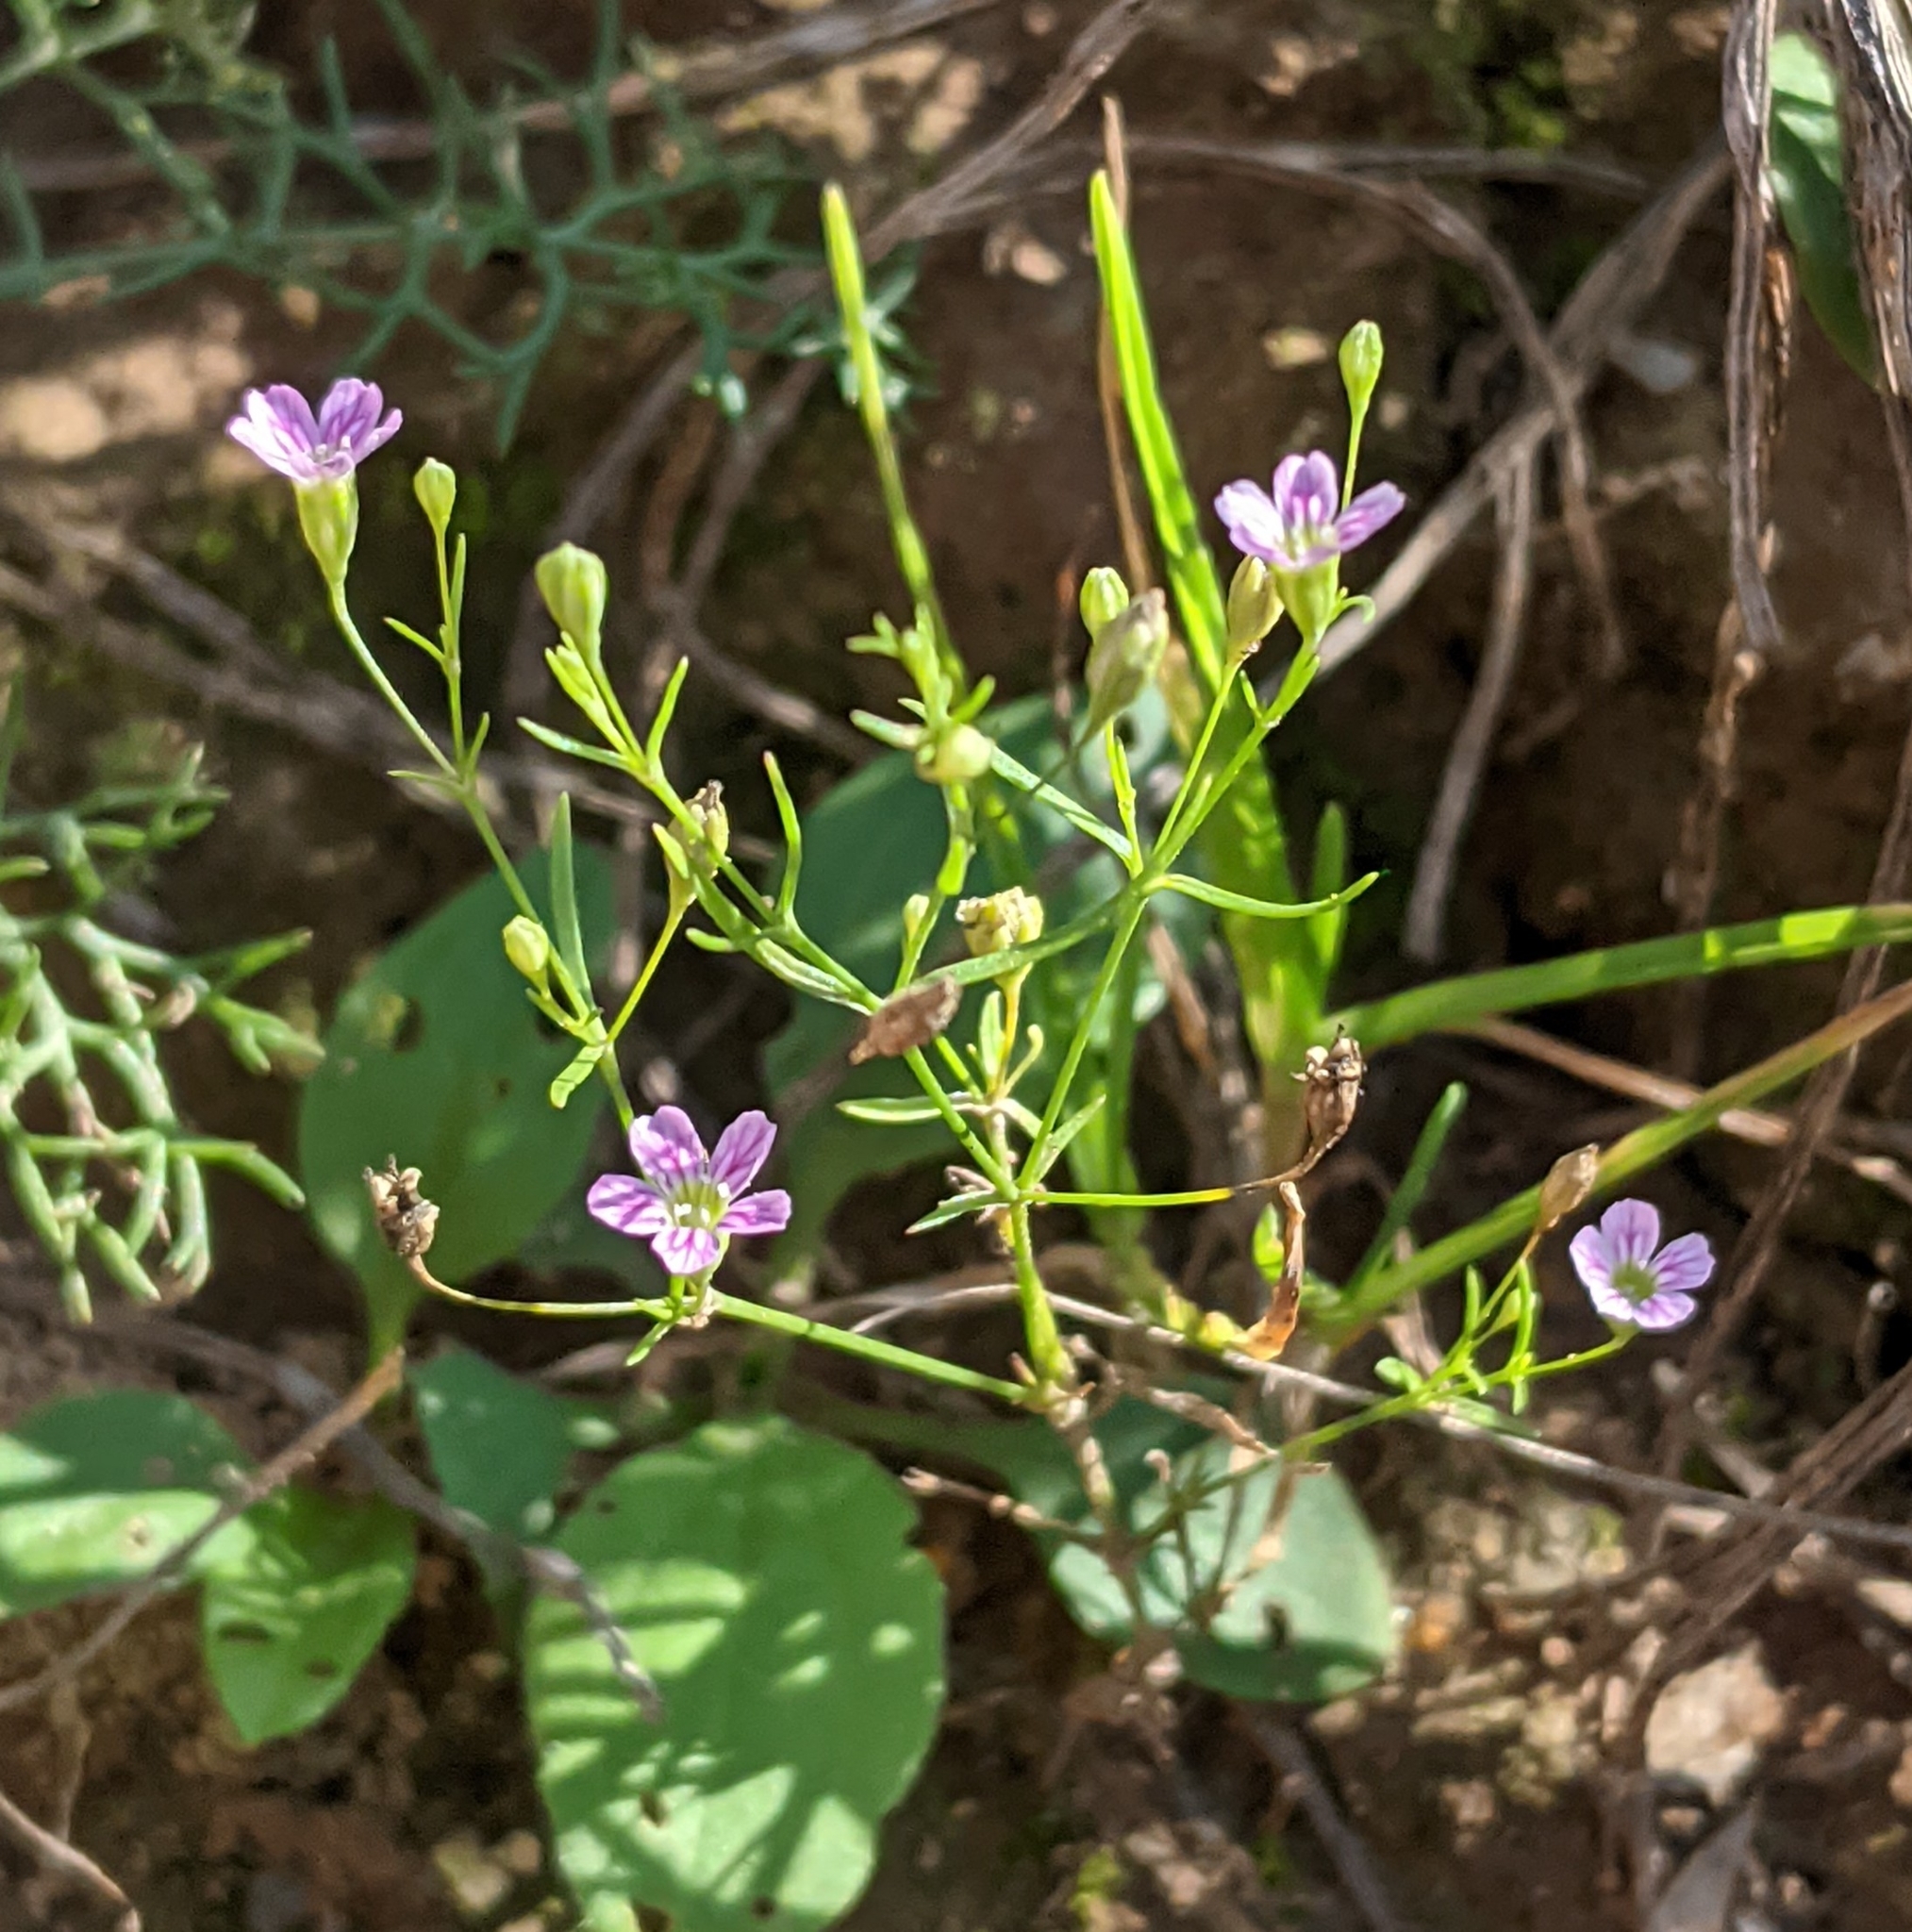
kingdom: Plantae
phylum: Tracheophyta
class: Magnoliopsida
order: Caryophyllales
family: Caryophyllaceae
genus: Psammophiliella
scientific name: Psammophiliella muralis
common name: Cushion baby's-breath
